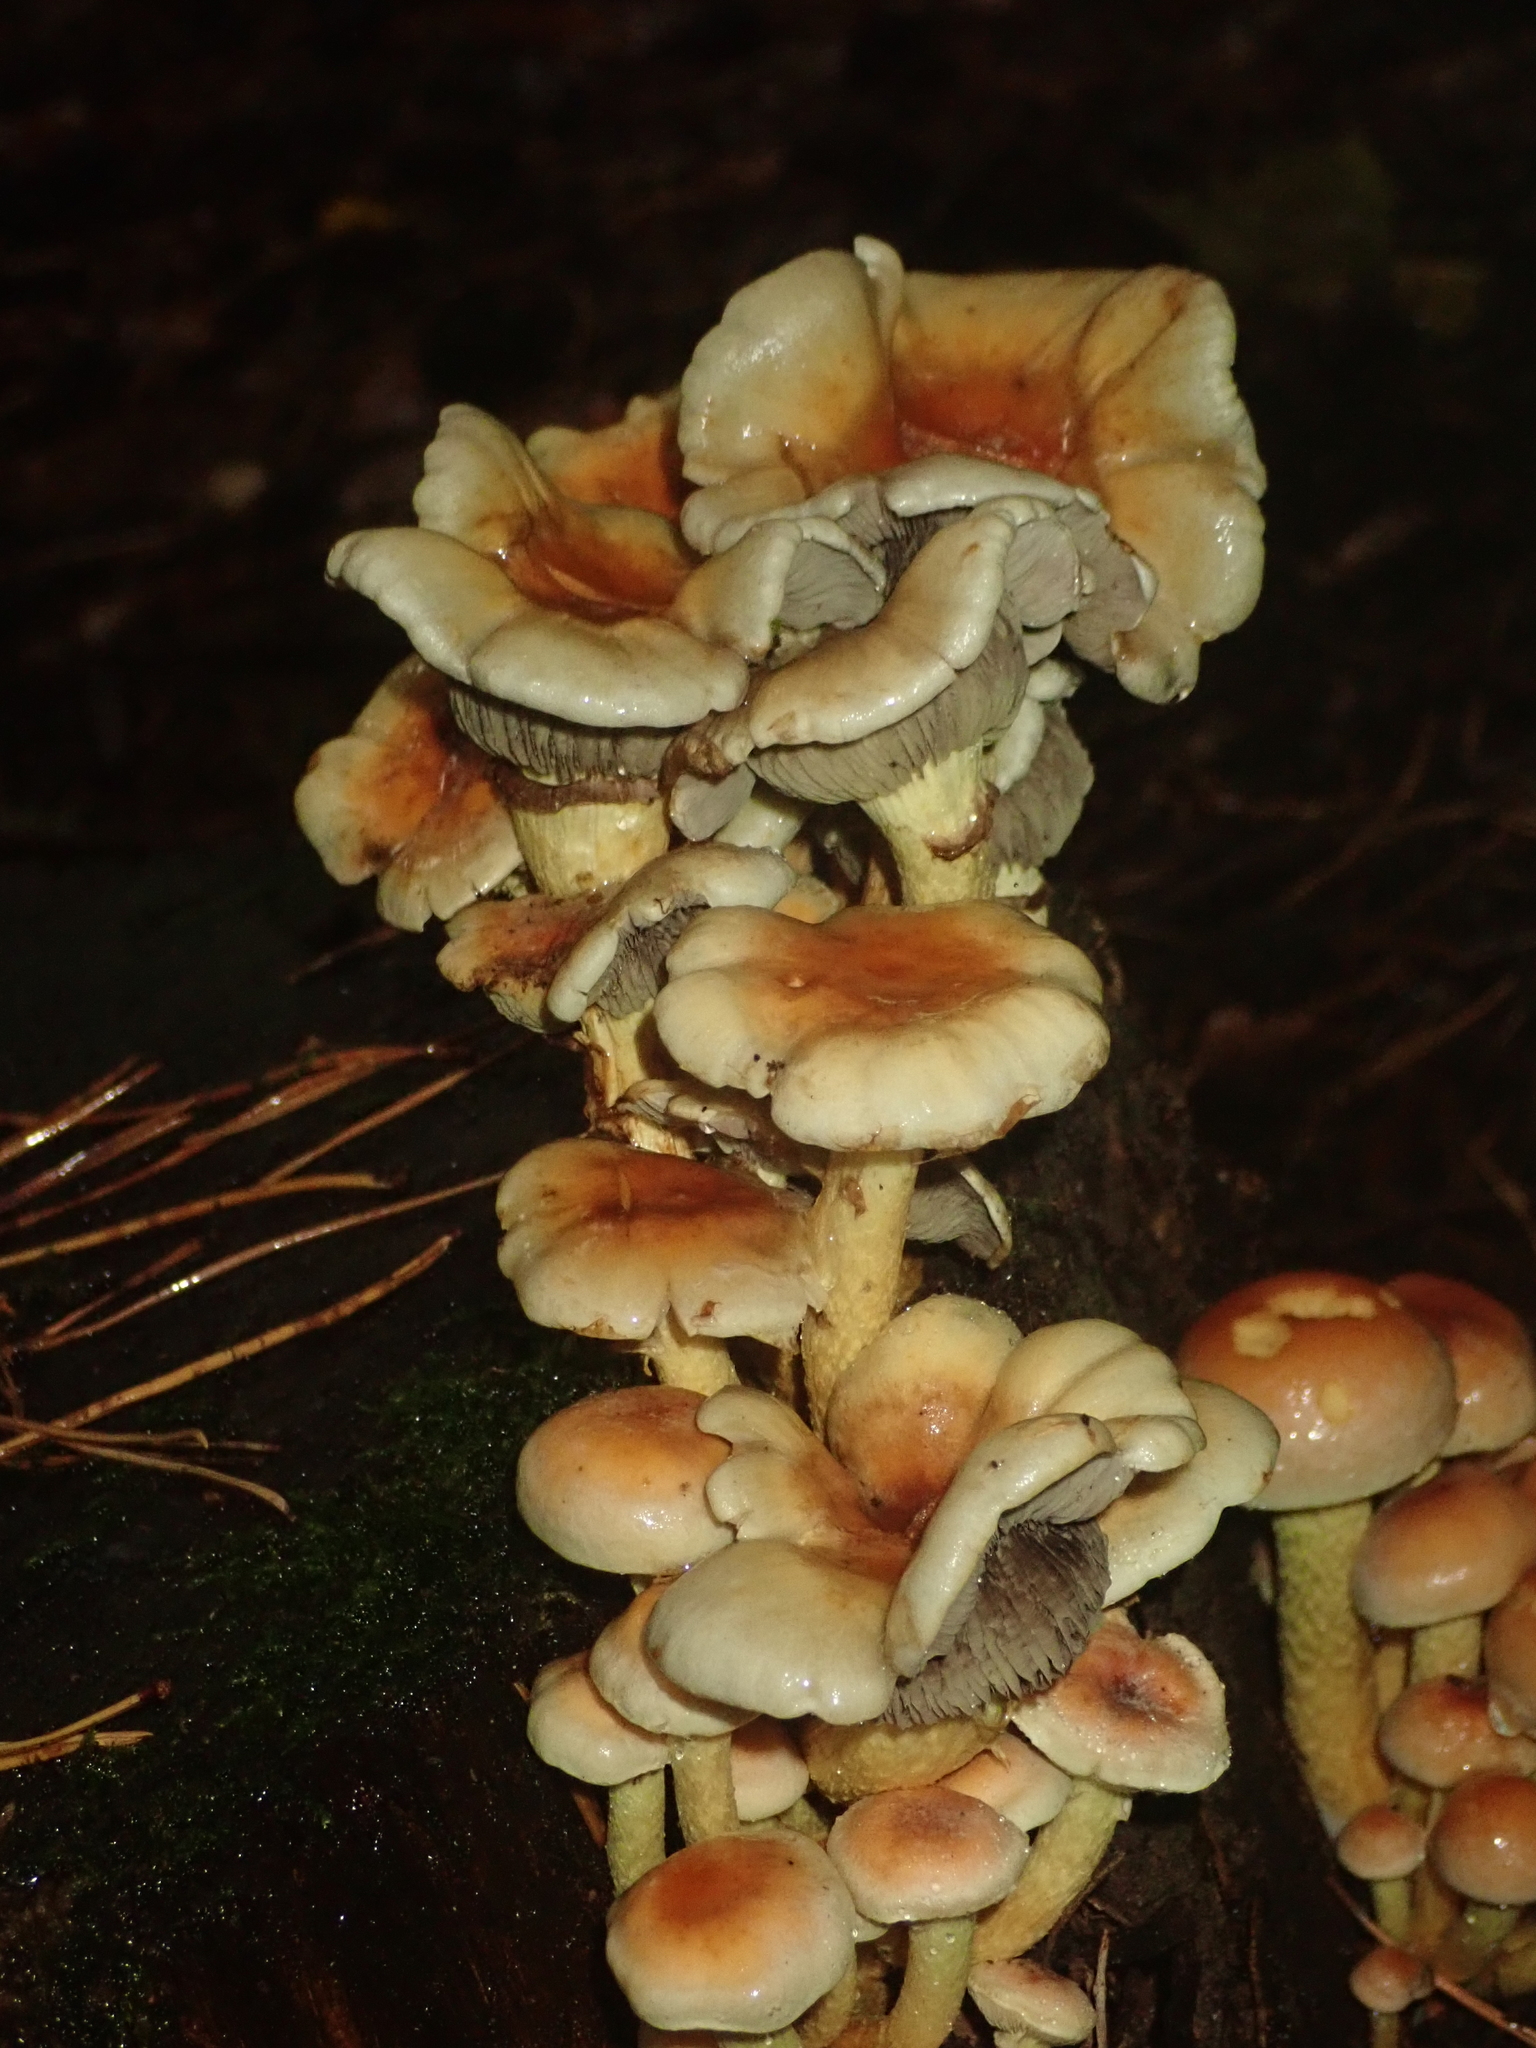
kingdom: Fungi
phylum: Basidiomycota
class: Agaricomycetes
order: Agaricales
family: Strophariaceae
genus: Hypholoma
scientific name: Hypholoma capnoides
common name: Conifer tuft
